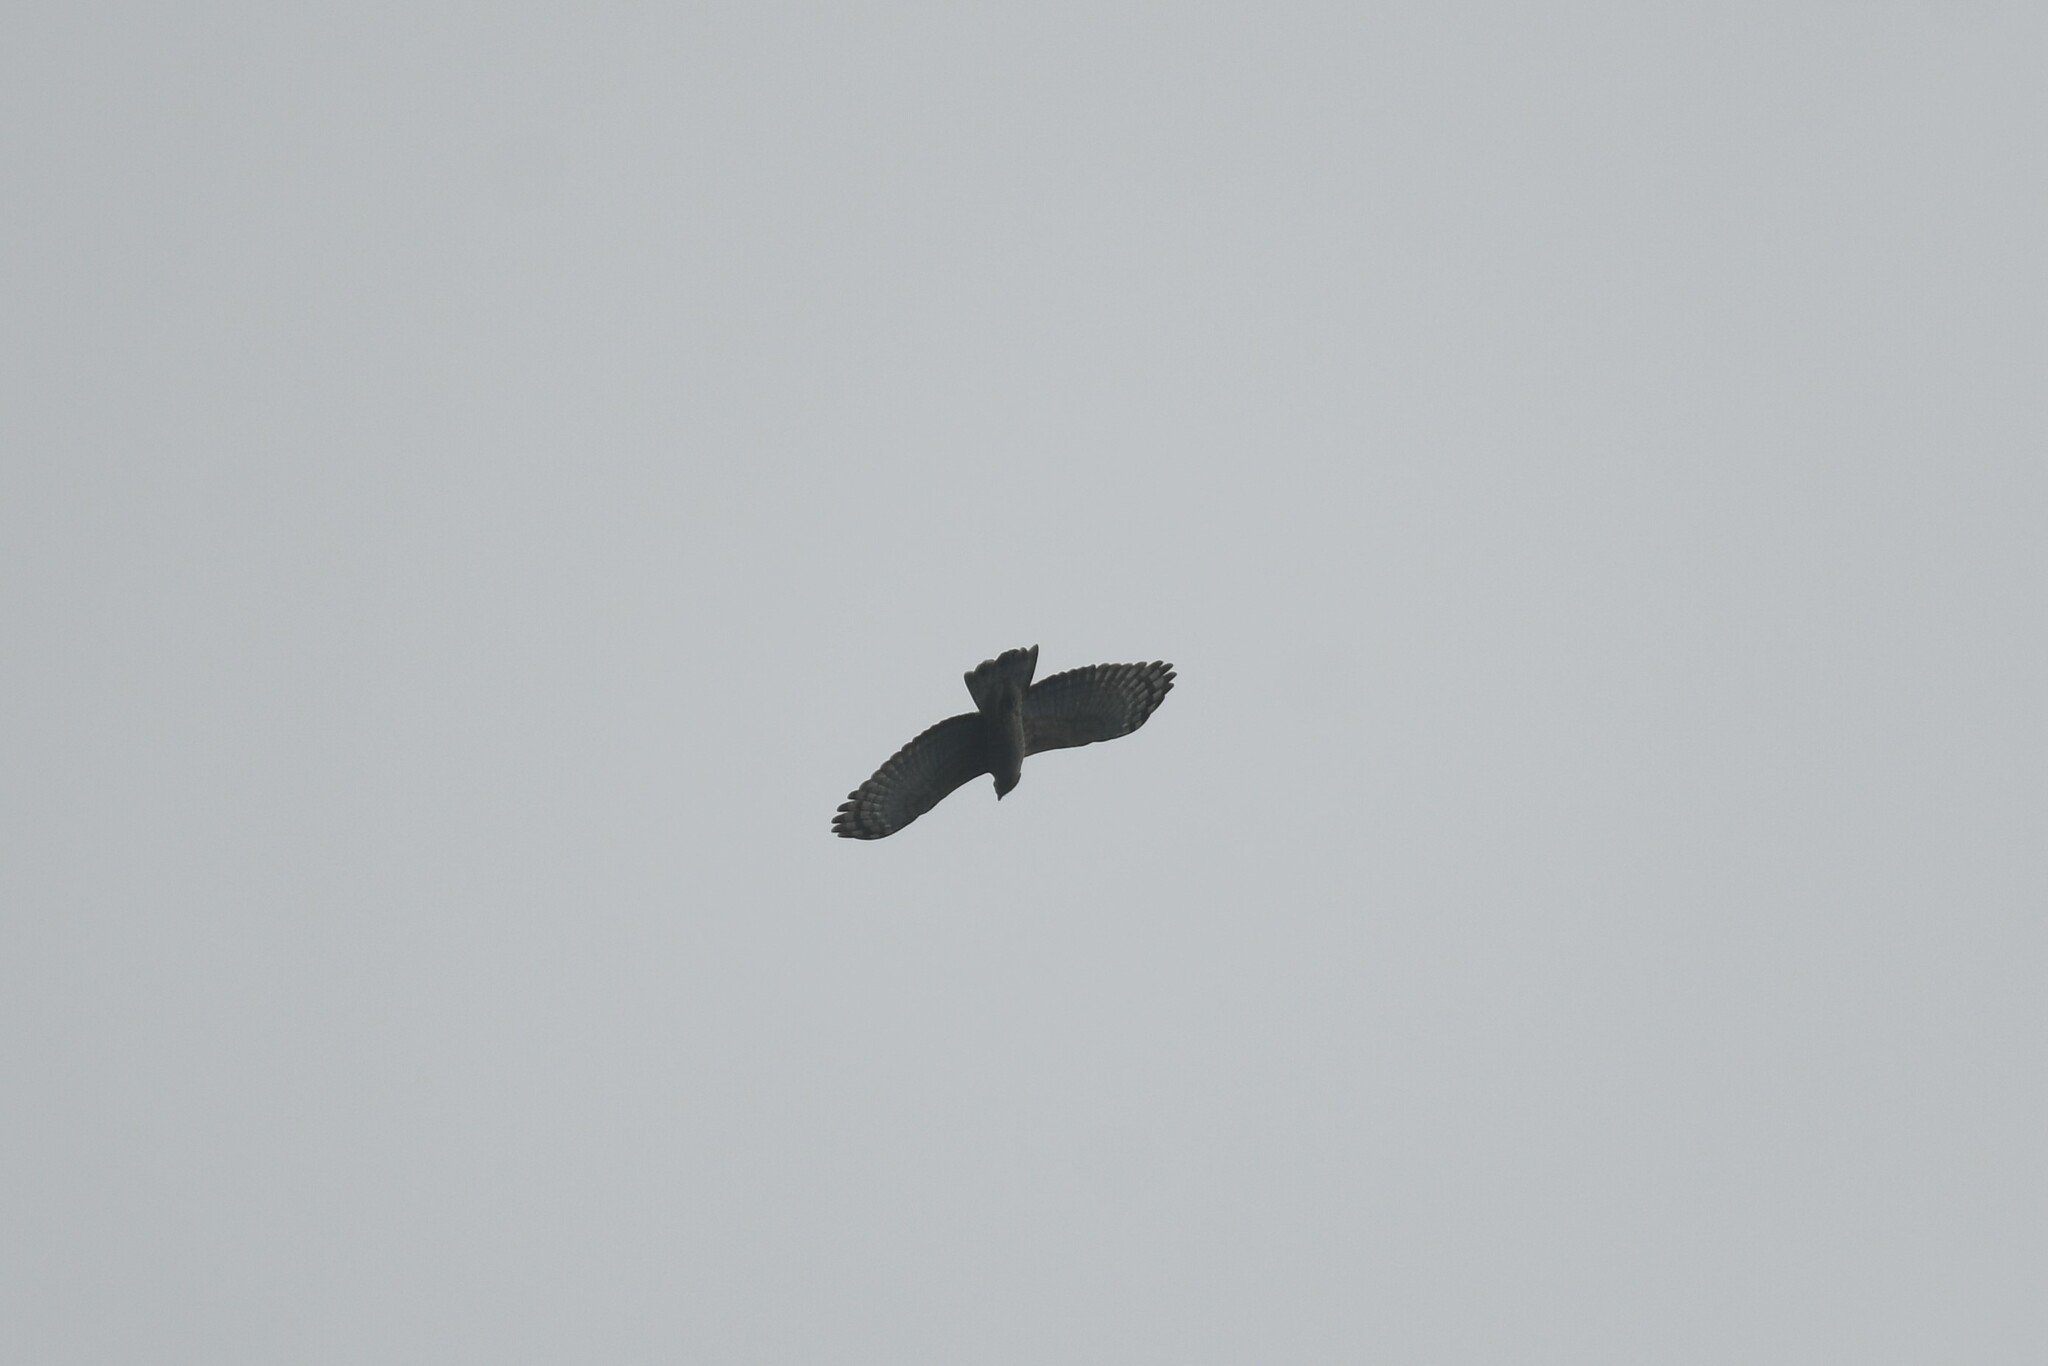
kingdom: Animalia
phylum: Chordata
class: Aves
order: Accipitriformes
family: Accipitridae
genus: Pernis
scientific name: Pernis ptilorhynchus
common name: Crested honey buzzard
